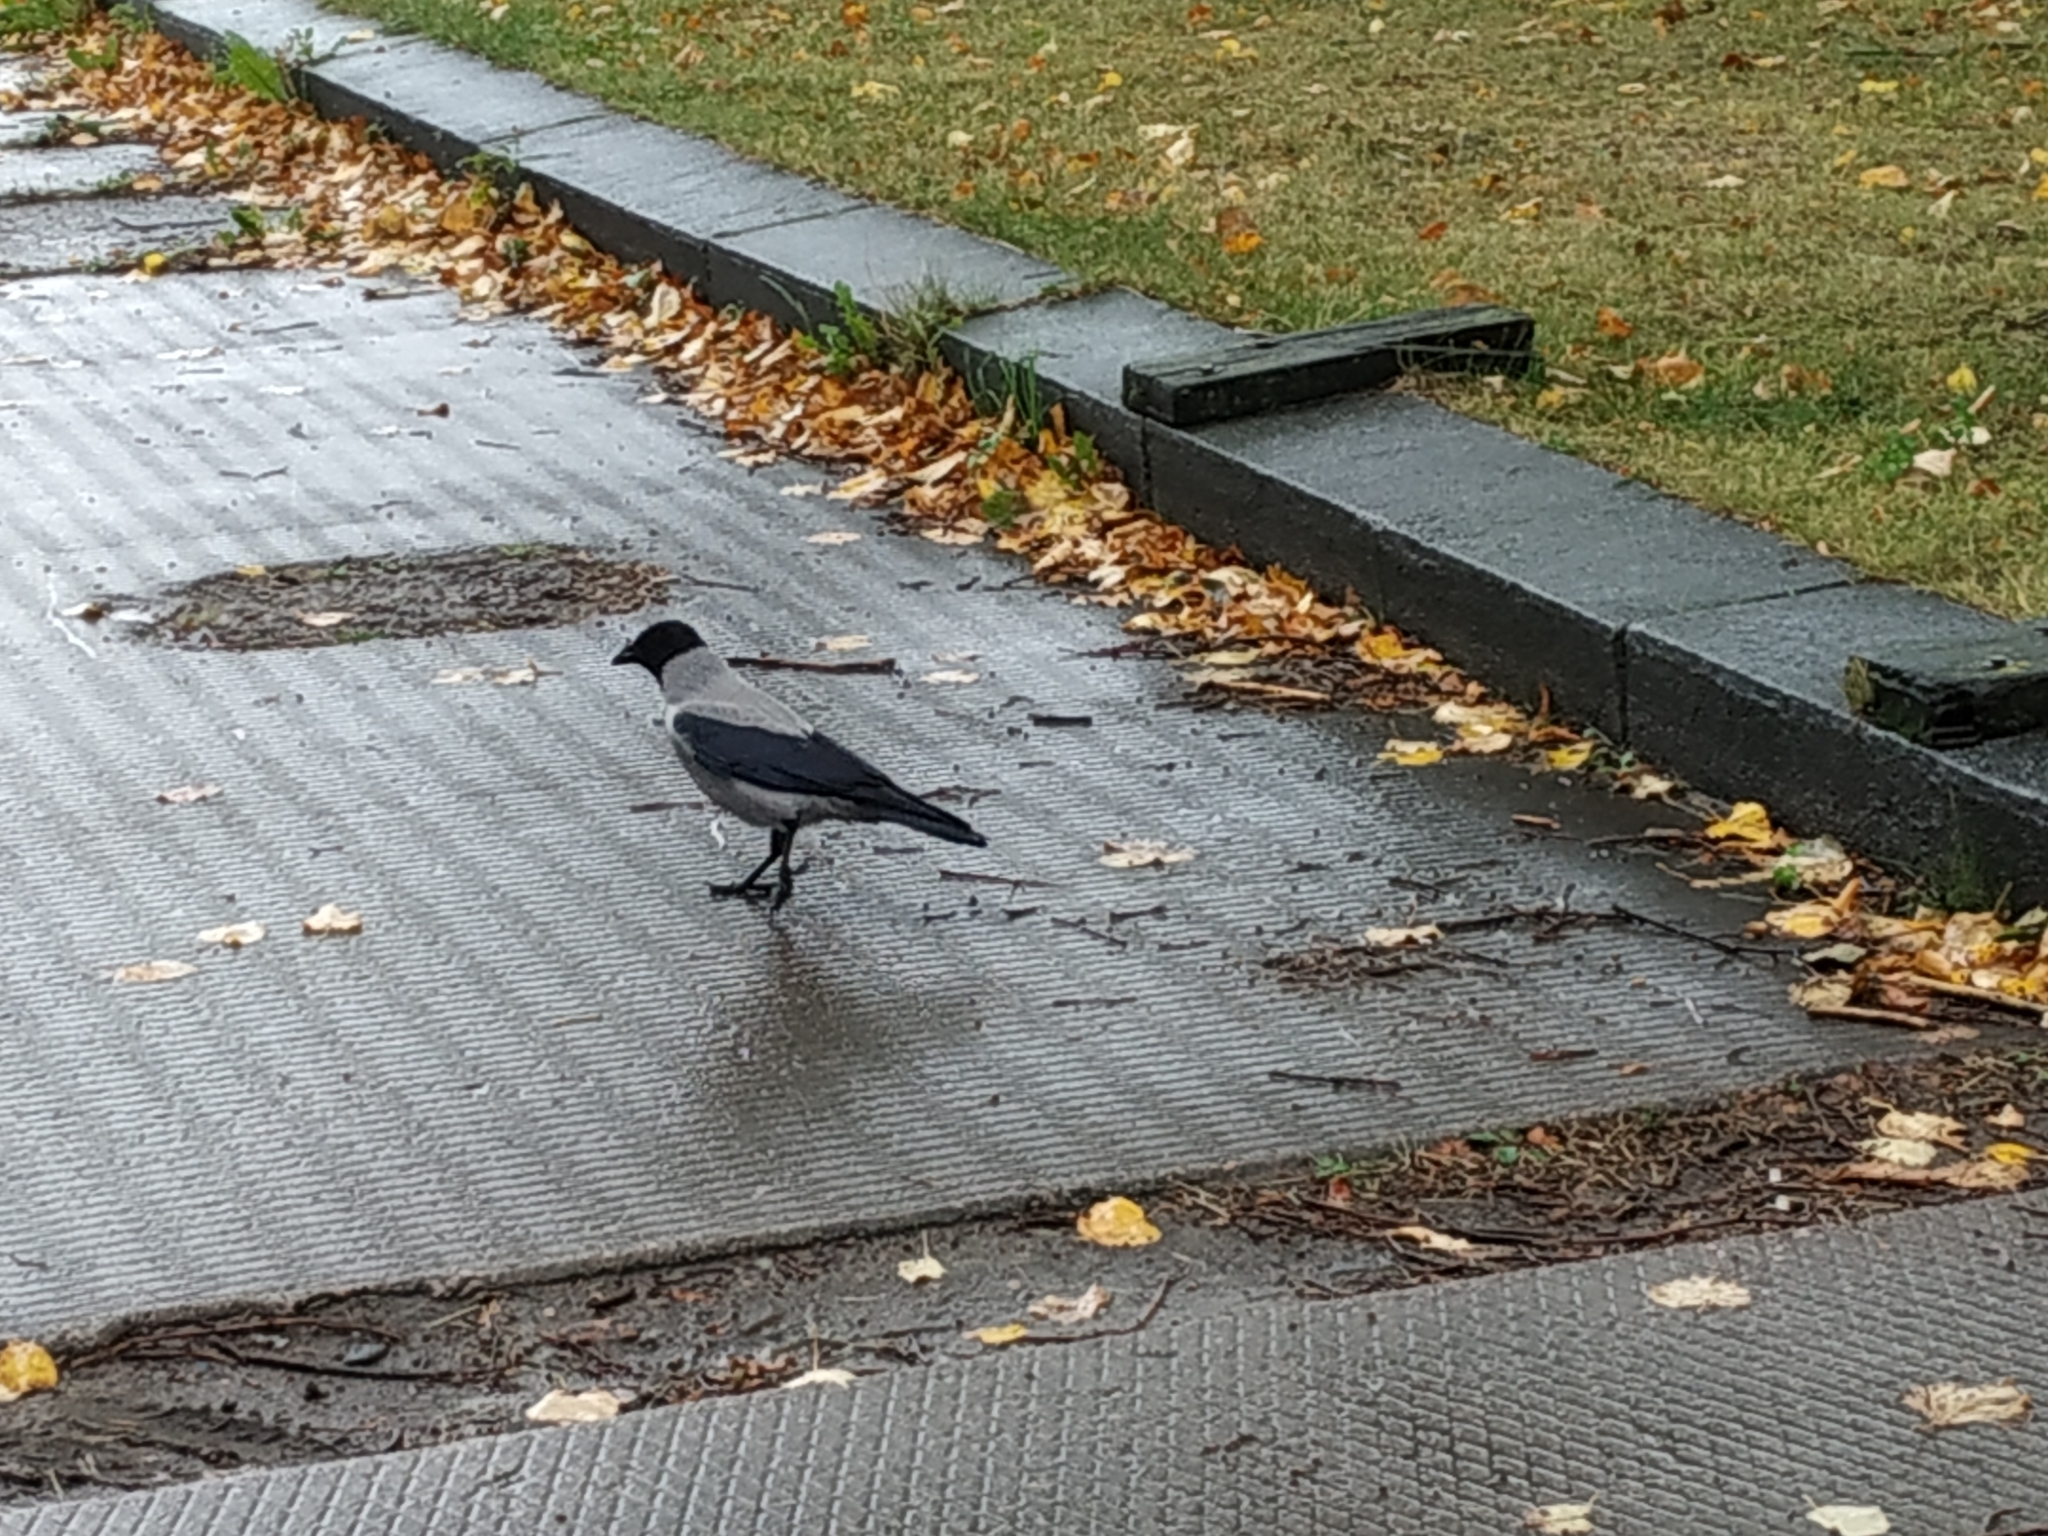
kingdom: Animalia
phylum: Chordata
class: Aves
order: Passeriformes
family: Corvidae
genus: Corvus
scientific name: Corvus cornix
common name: Hooded crow
